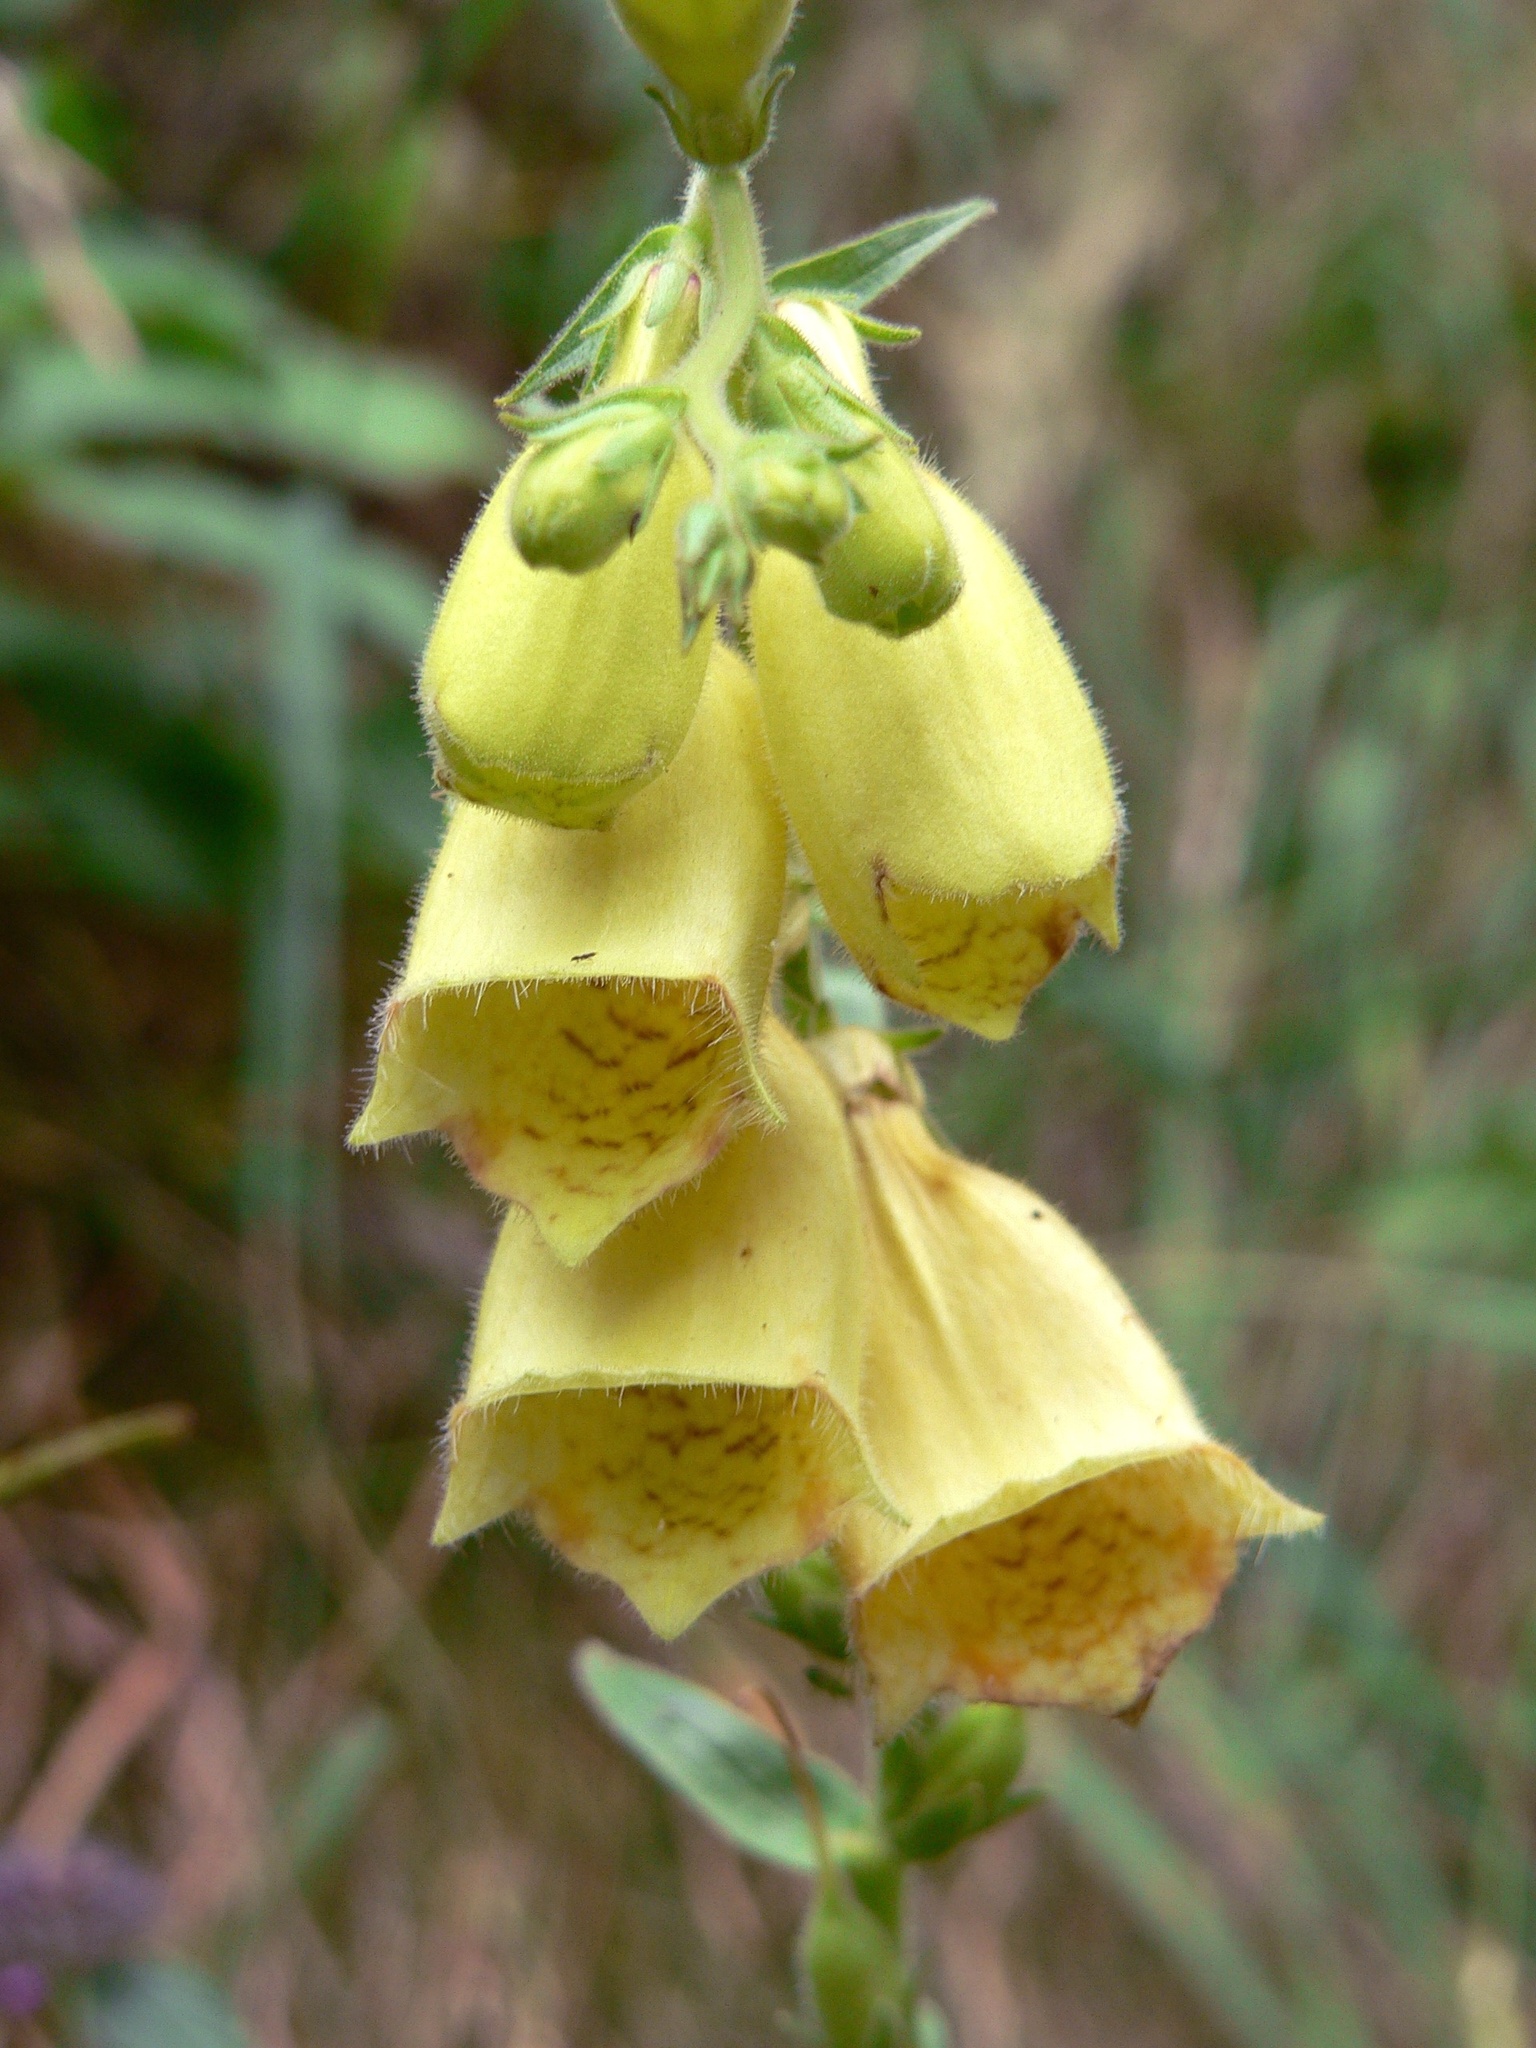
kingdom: Plantae
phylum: Tracheophyta
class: Magnoliopsida
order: Lamiales
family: Plantaginaceae
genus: Digitalis
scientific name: Digitalis grandiflora
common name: Yellow foxglove
